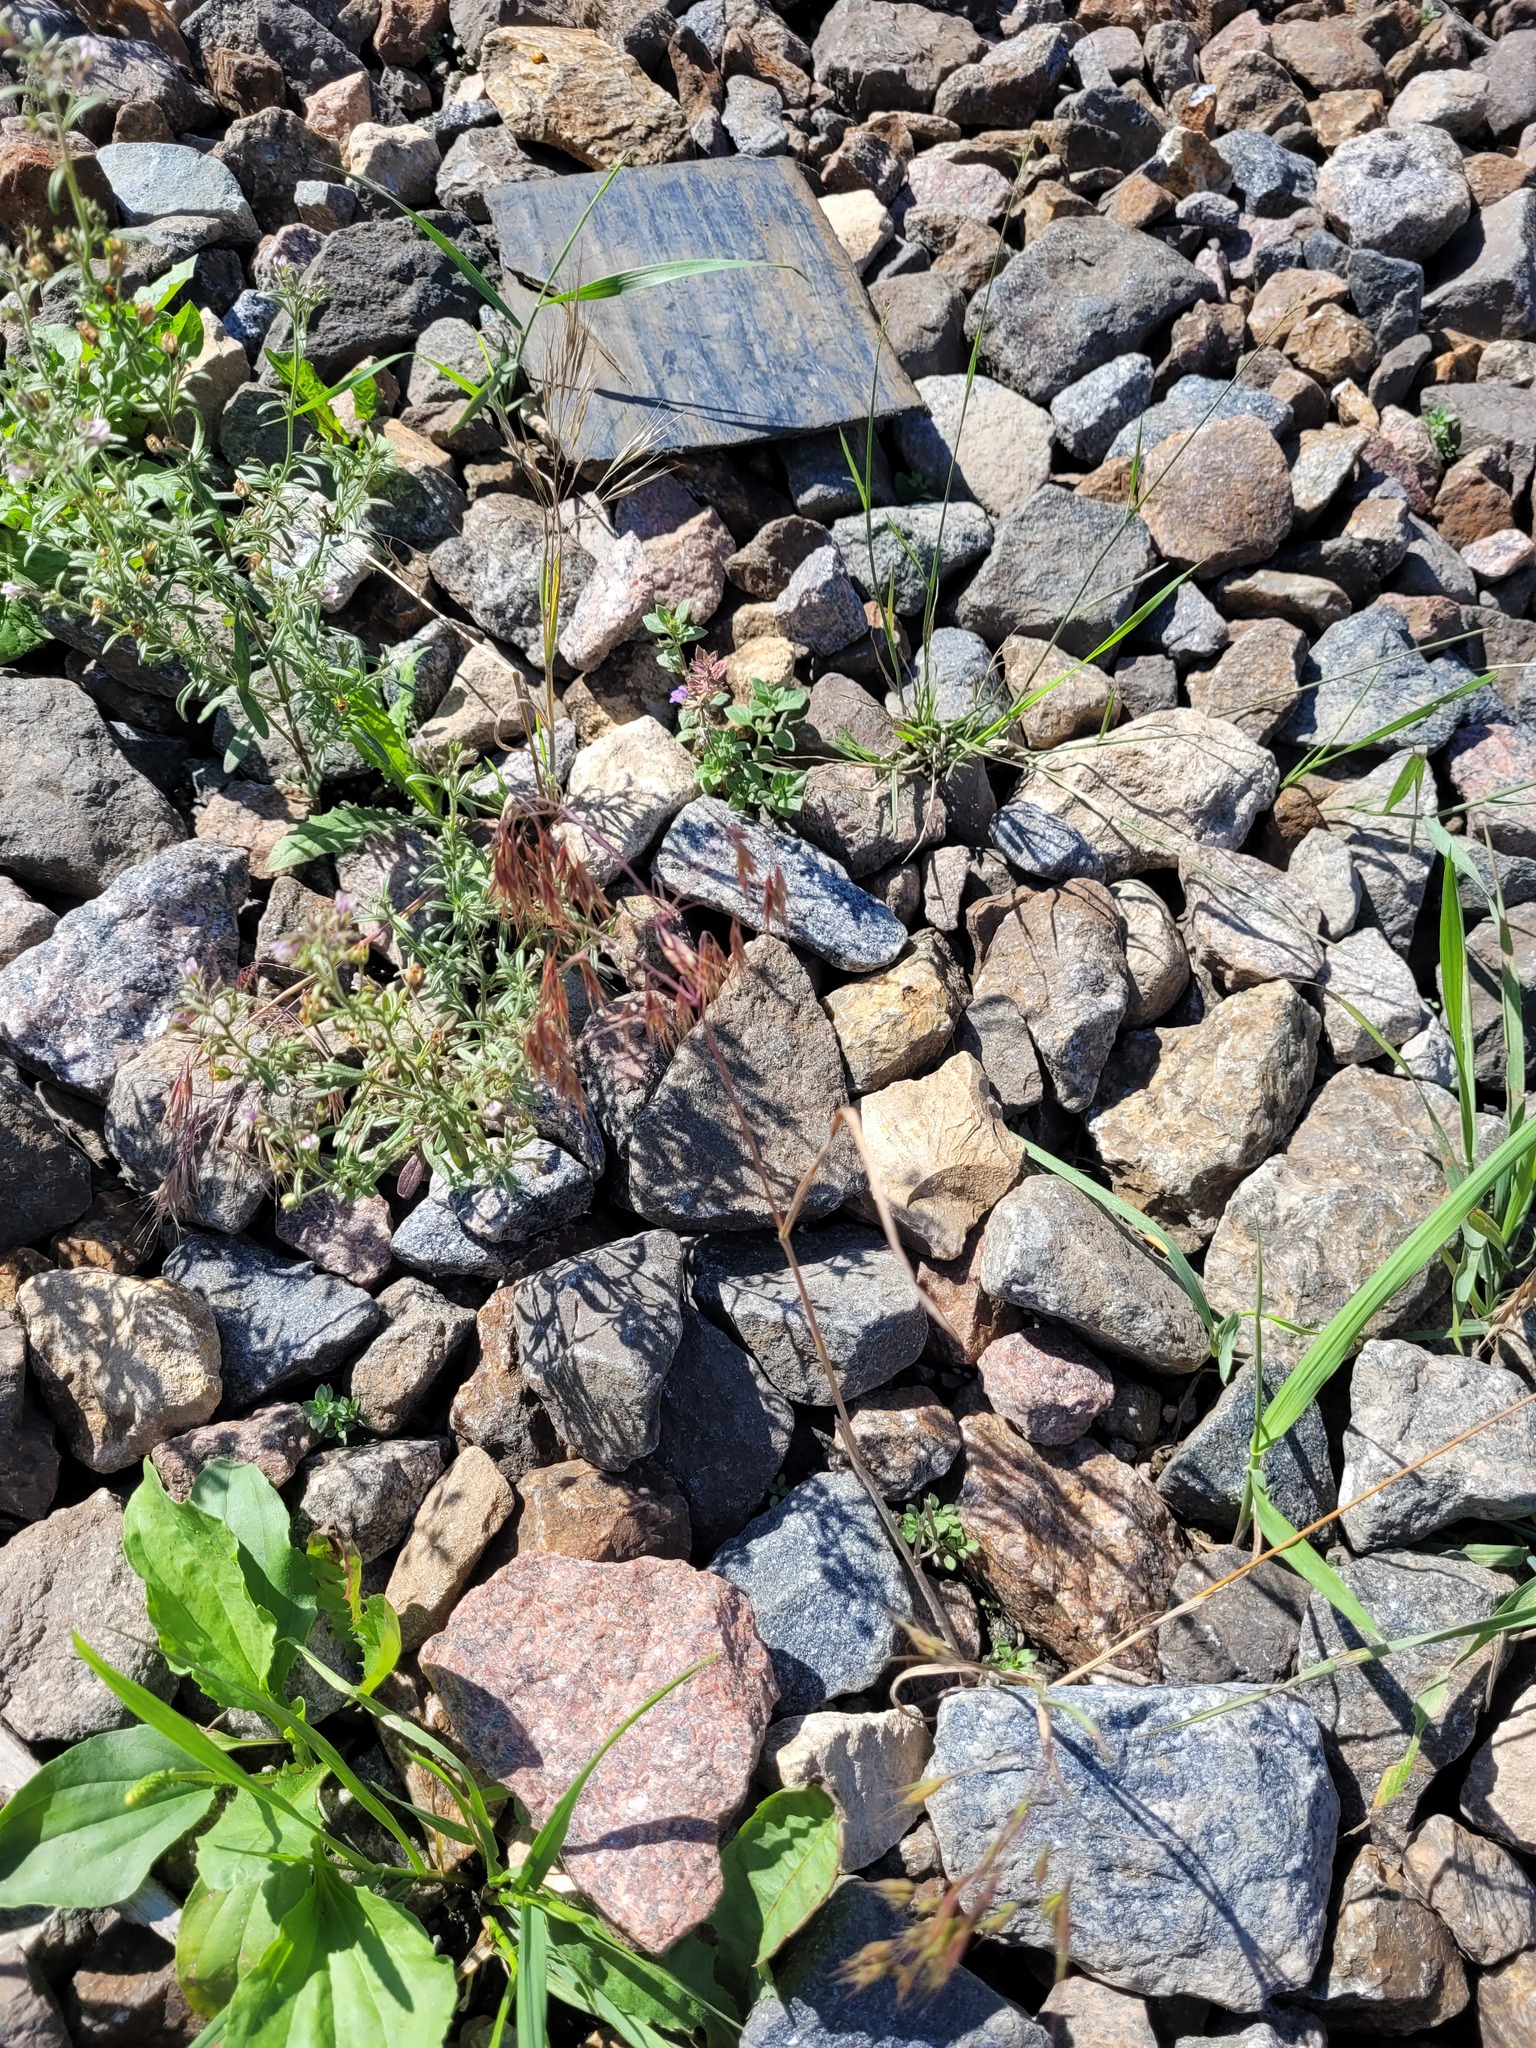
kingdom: Plantae
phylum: Tracheophyta
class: Liliopsida
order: Poales
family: Poaceae
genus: Bromus
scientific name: Bromus tectorum
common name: Cheatgrass
